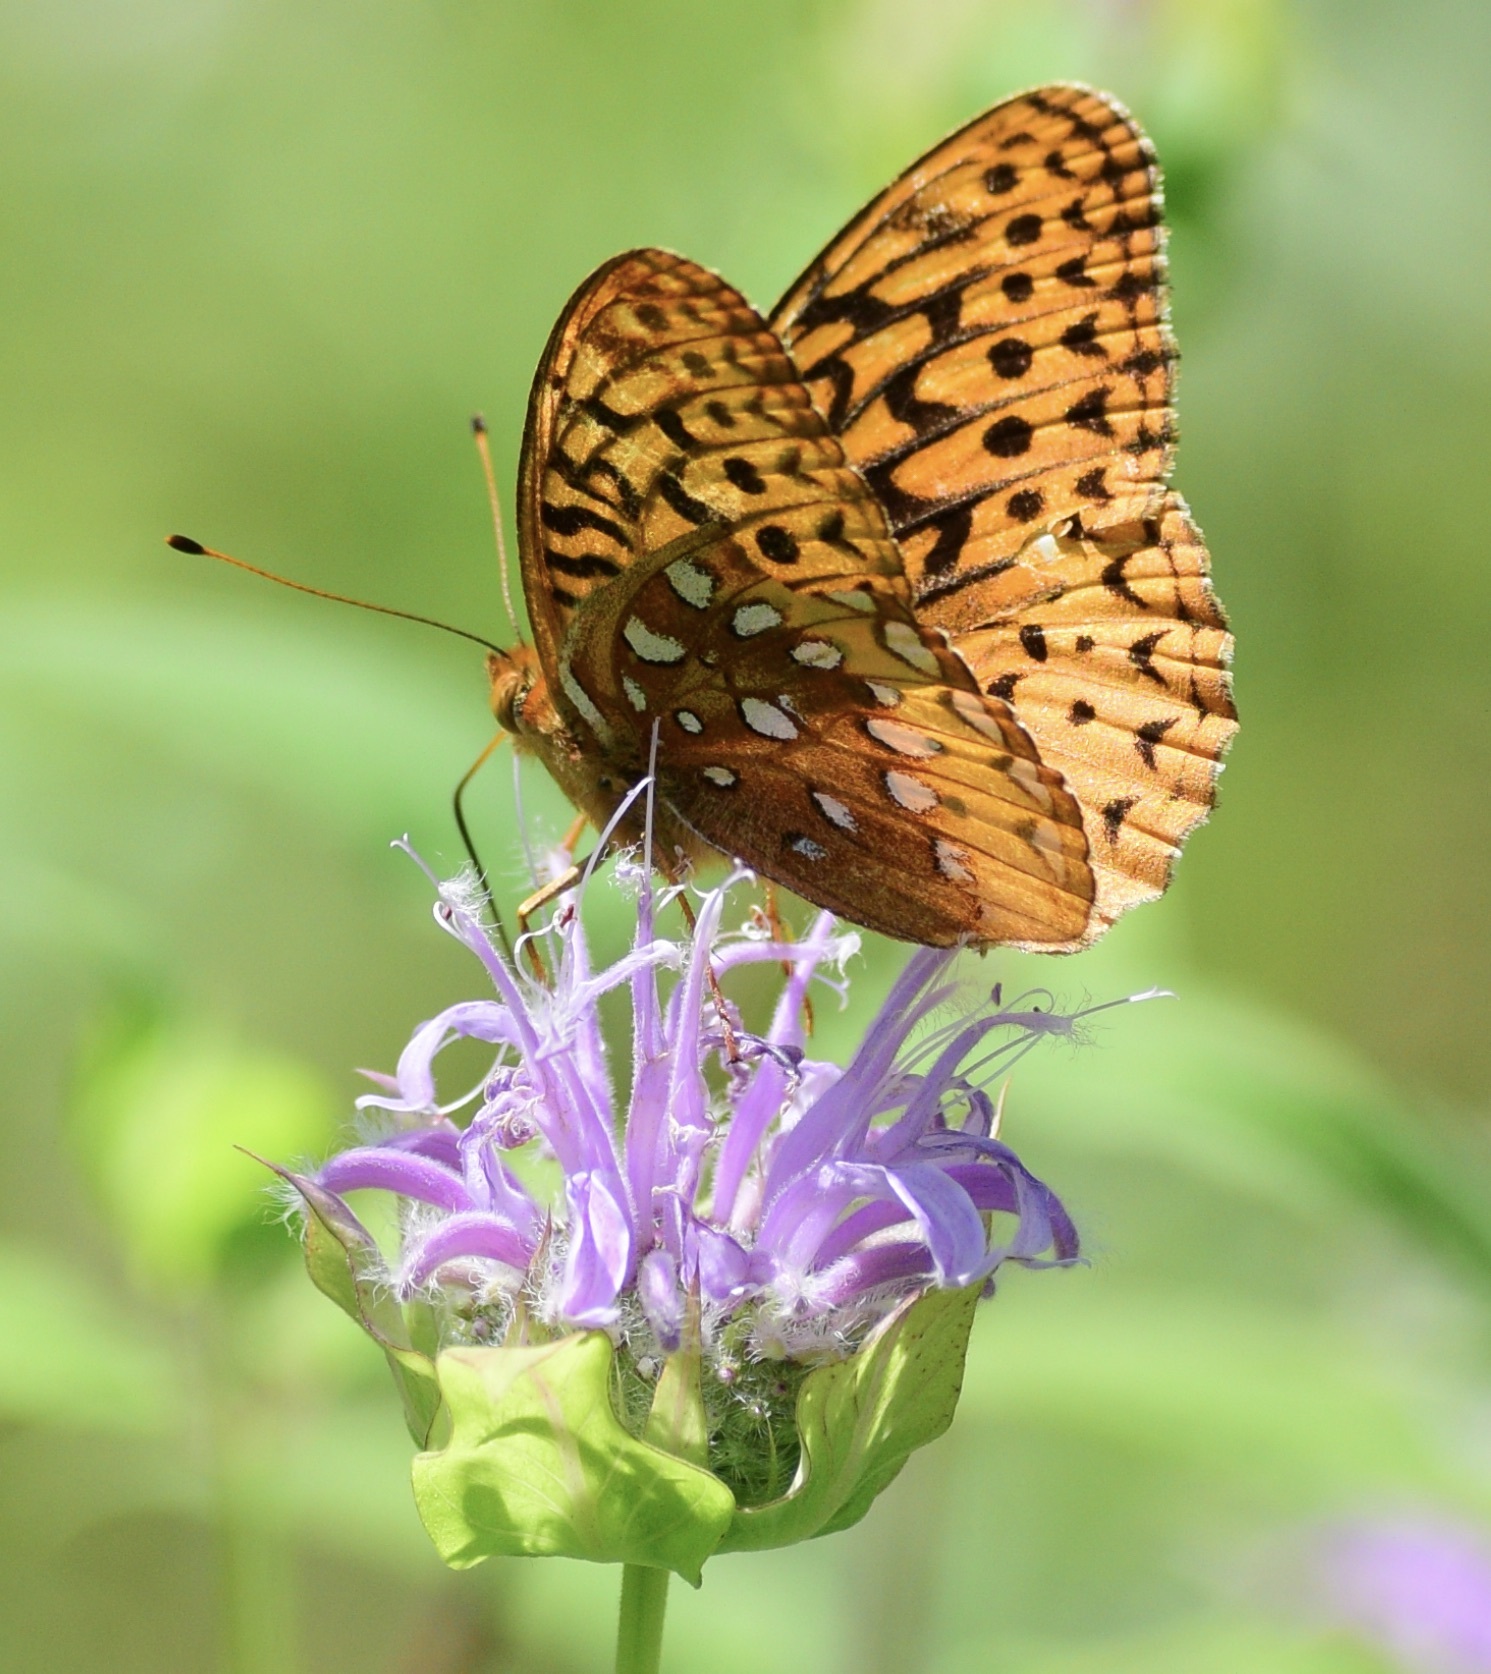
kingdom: Animalia
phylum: Arthropoda
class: Insecta
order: Lepidoptera
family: Nymphalidae
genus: Speyeria
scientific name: Speyeria cybele
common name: Great spangled fritillary
